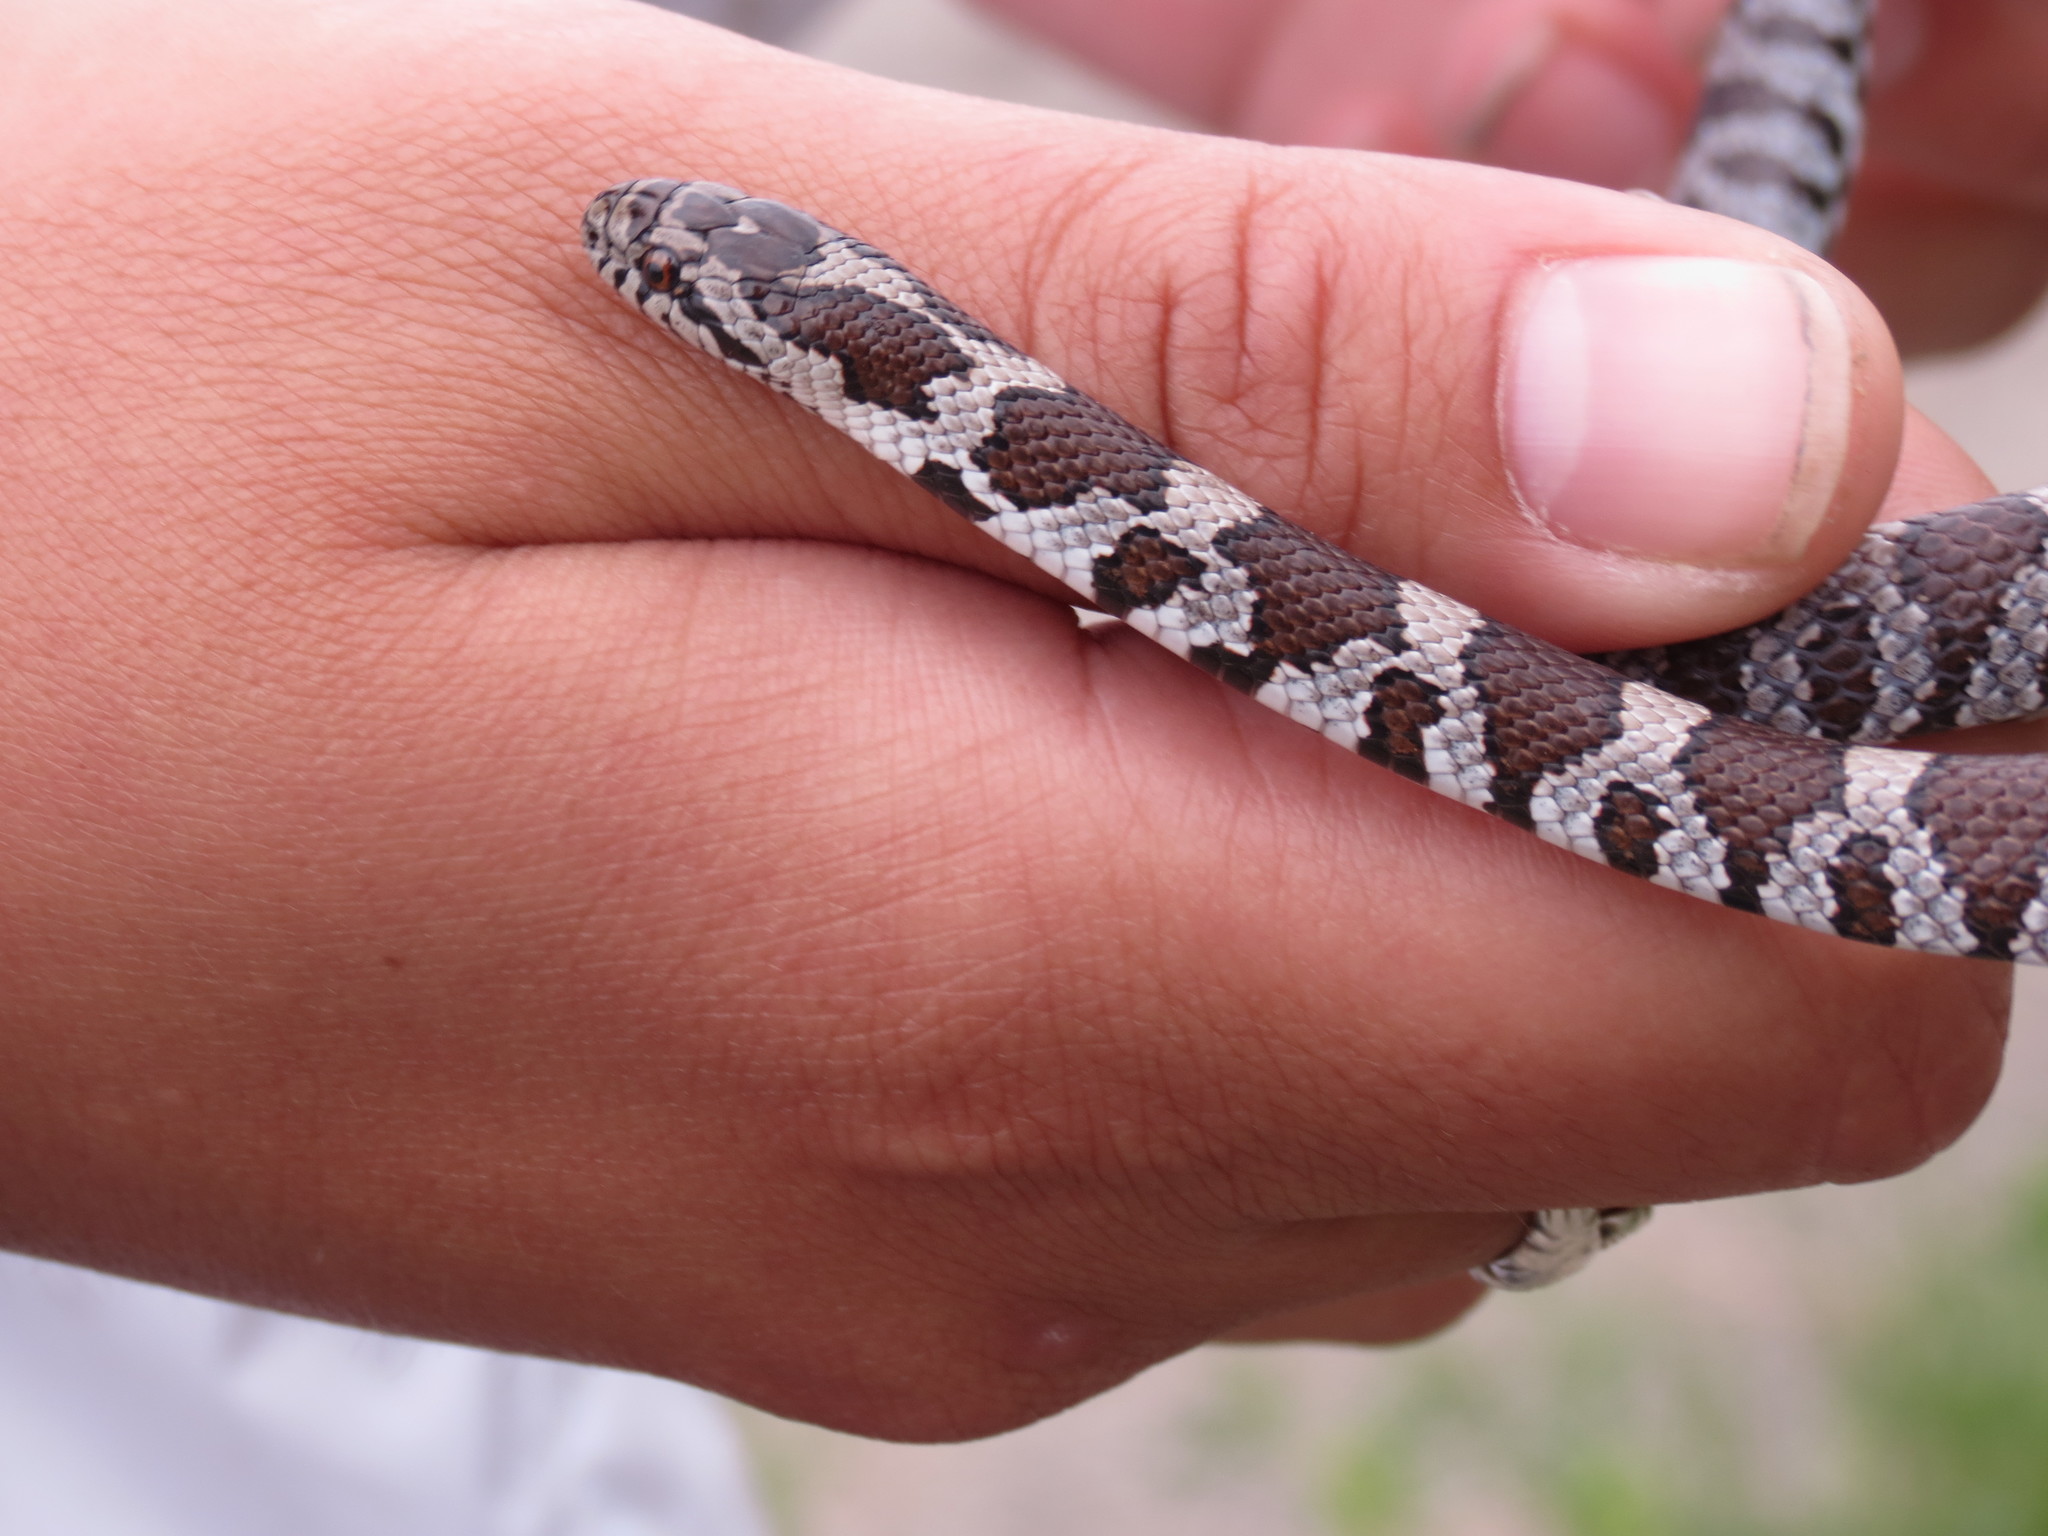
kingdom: Animalia
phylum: Chordata
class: Squamata
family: Colubridae
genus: Lampropeltis
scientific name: Lampropeltis triangulum
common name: Eastern milksnake
